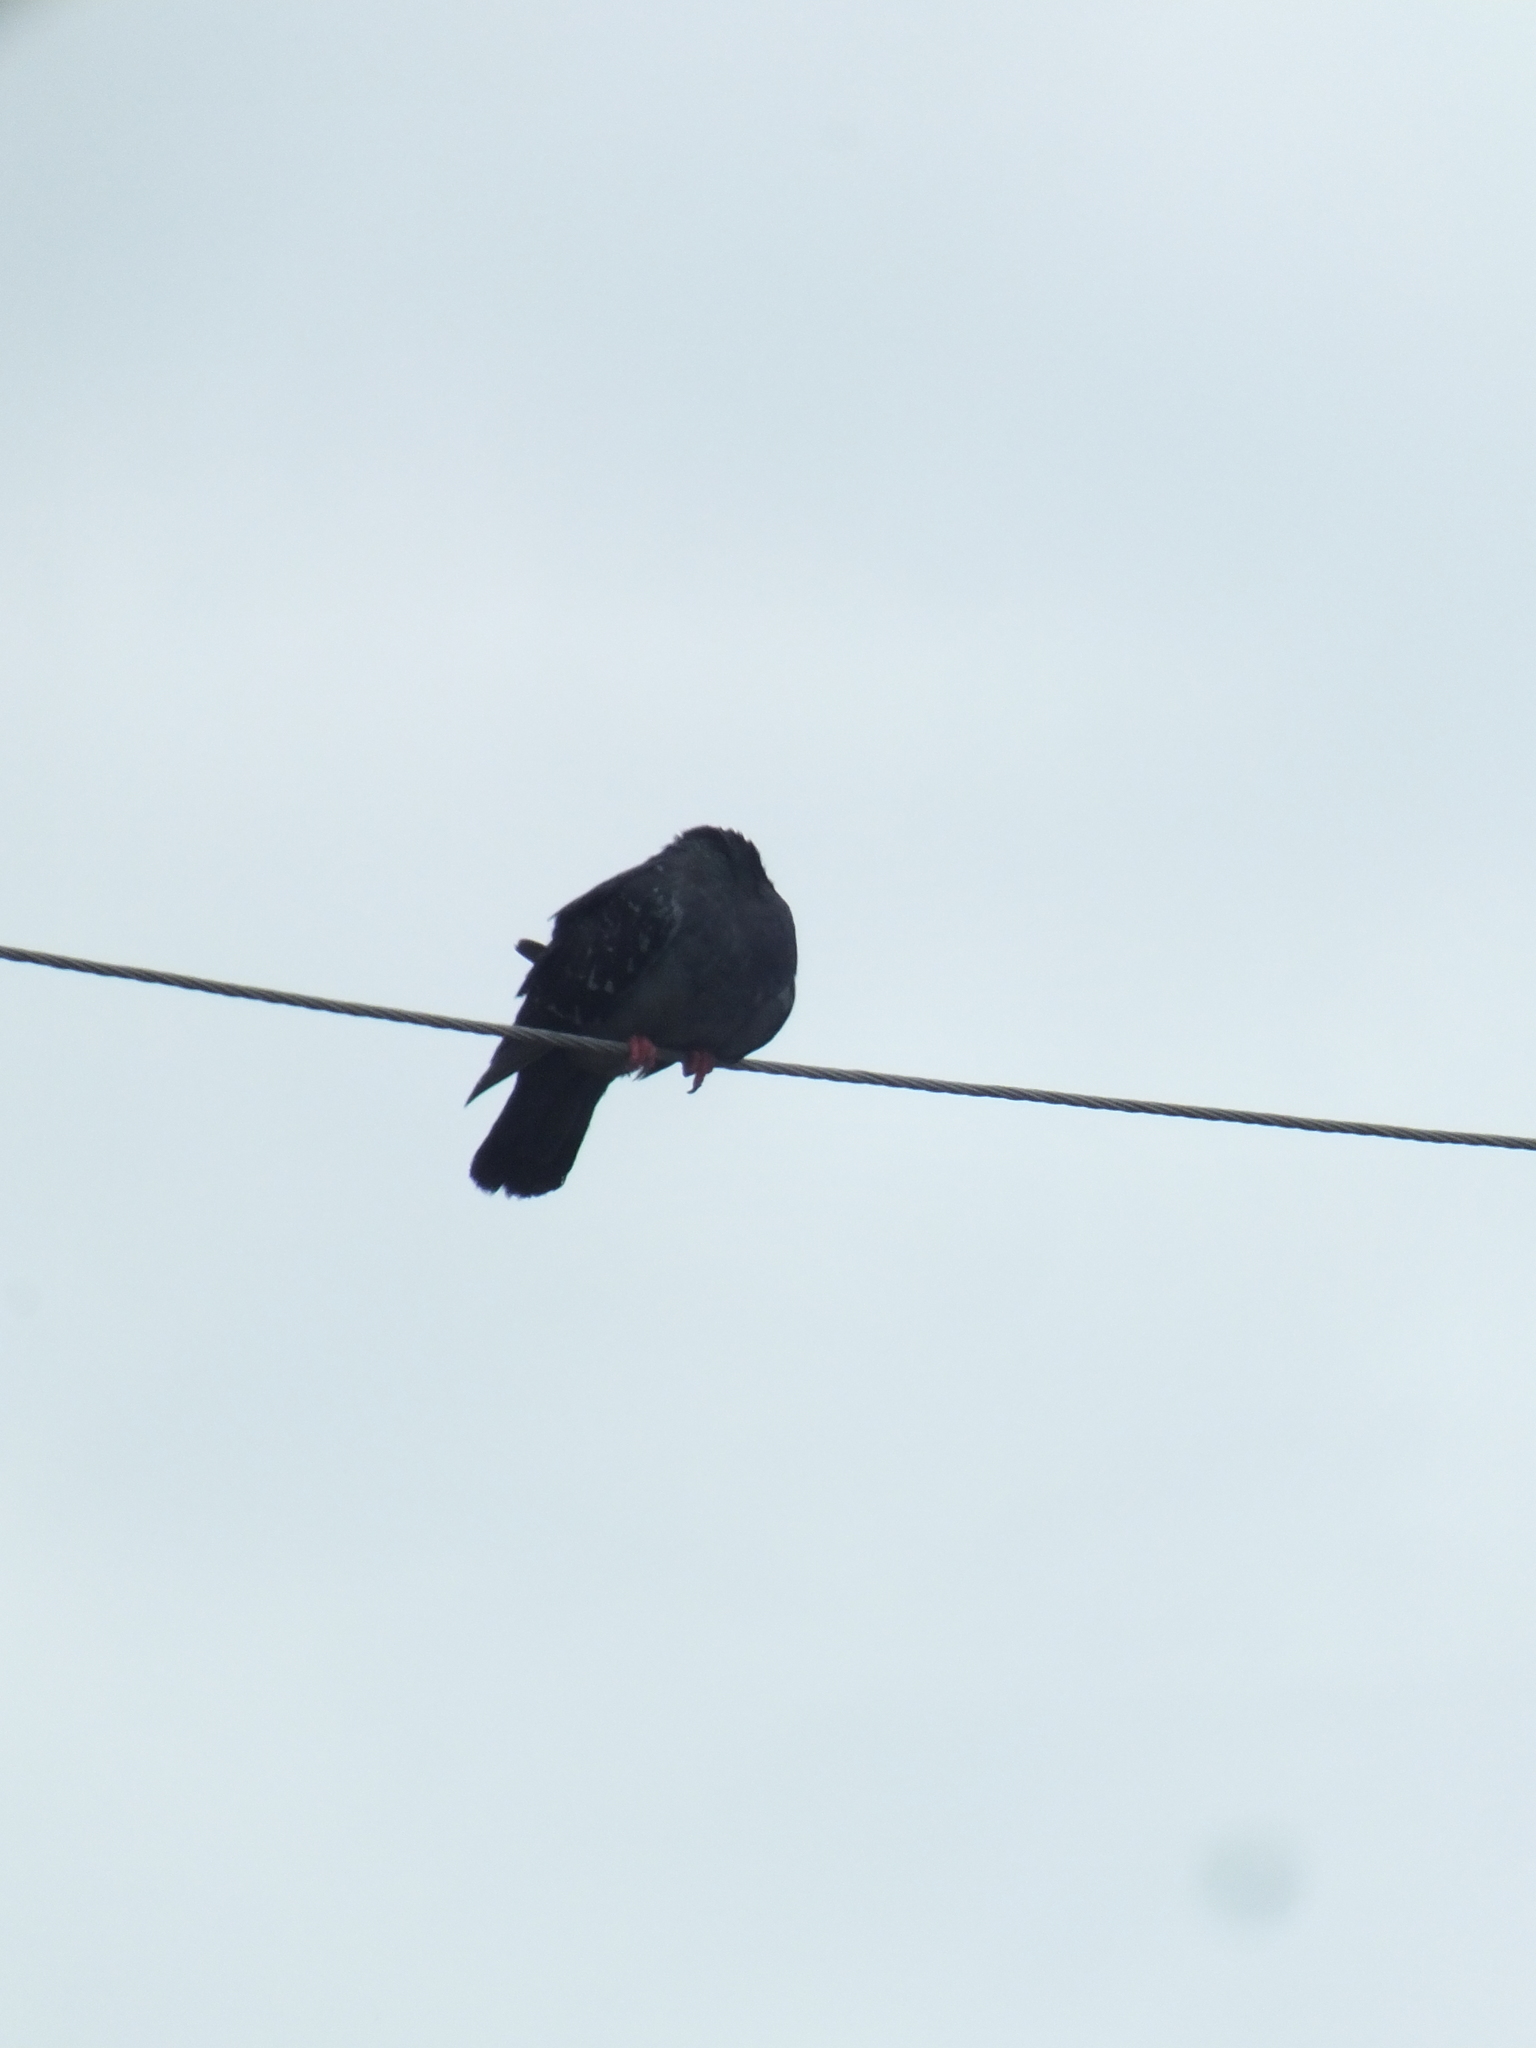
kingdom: Animalia
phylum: Chordata
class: Aves
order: Columbiformes
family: Columbidae
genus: Columba
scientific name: Columba livia
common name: Rock pigeon
